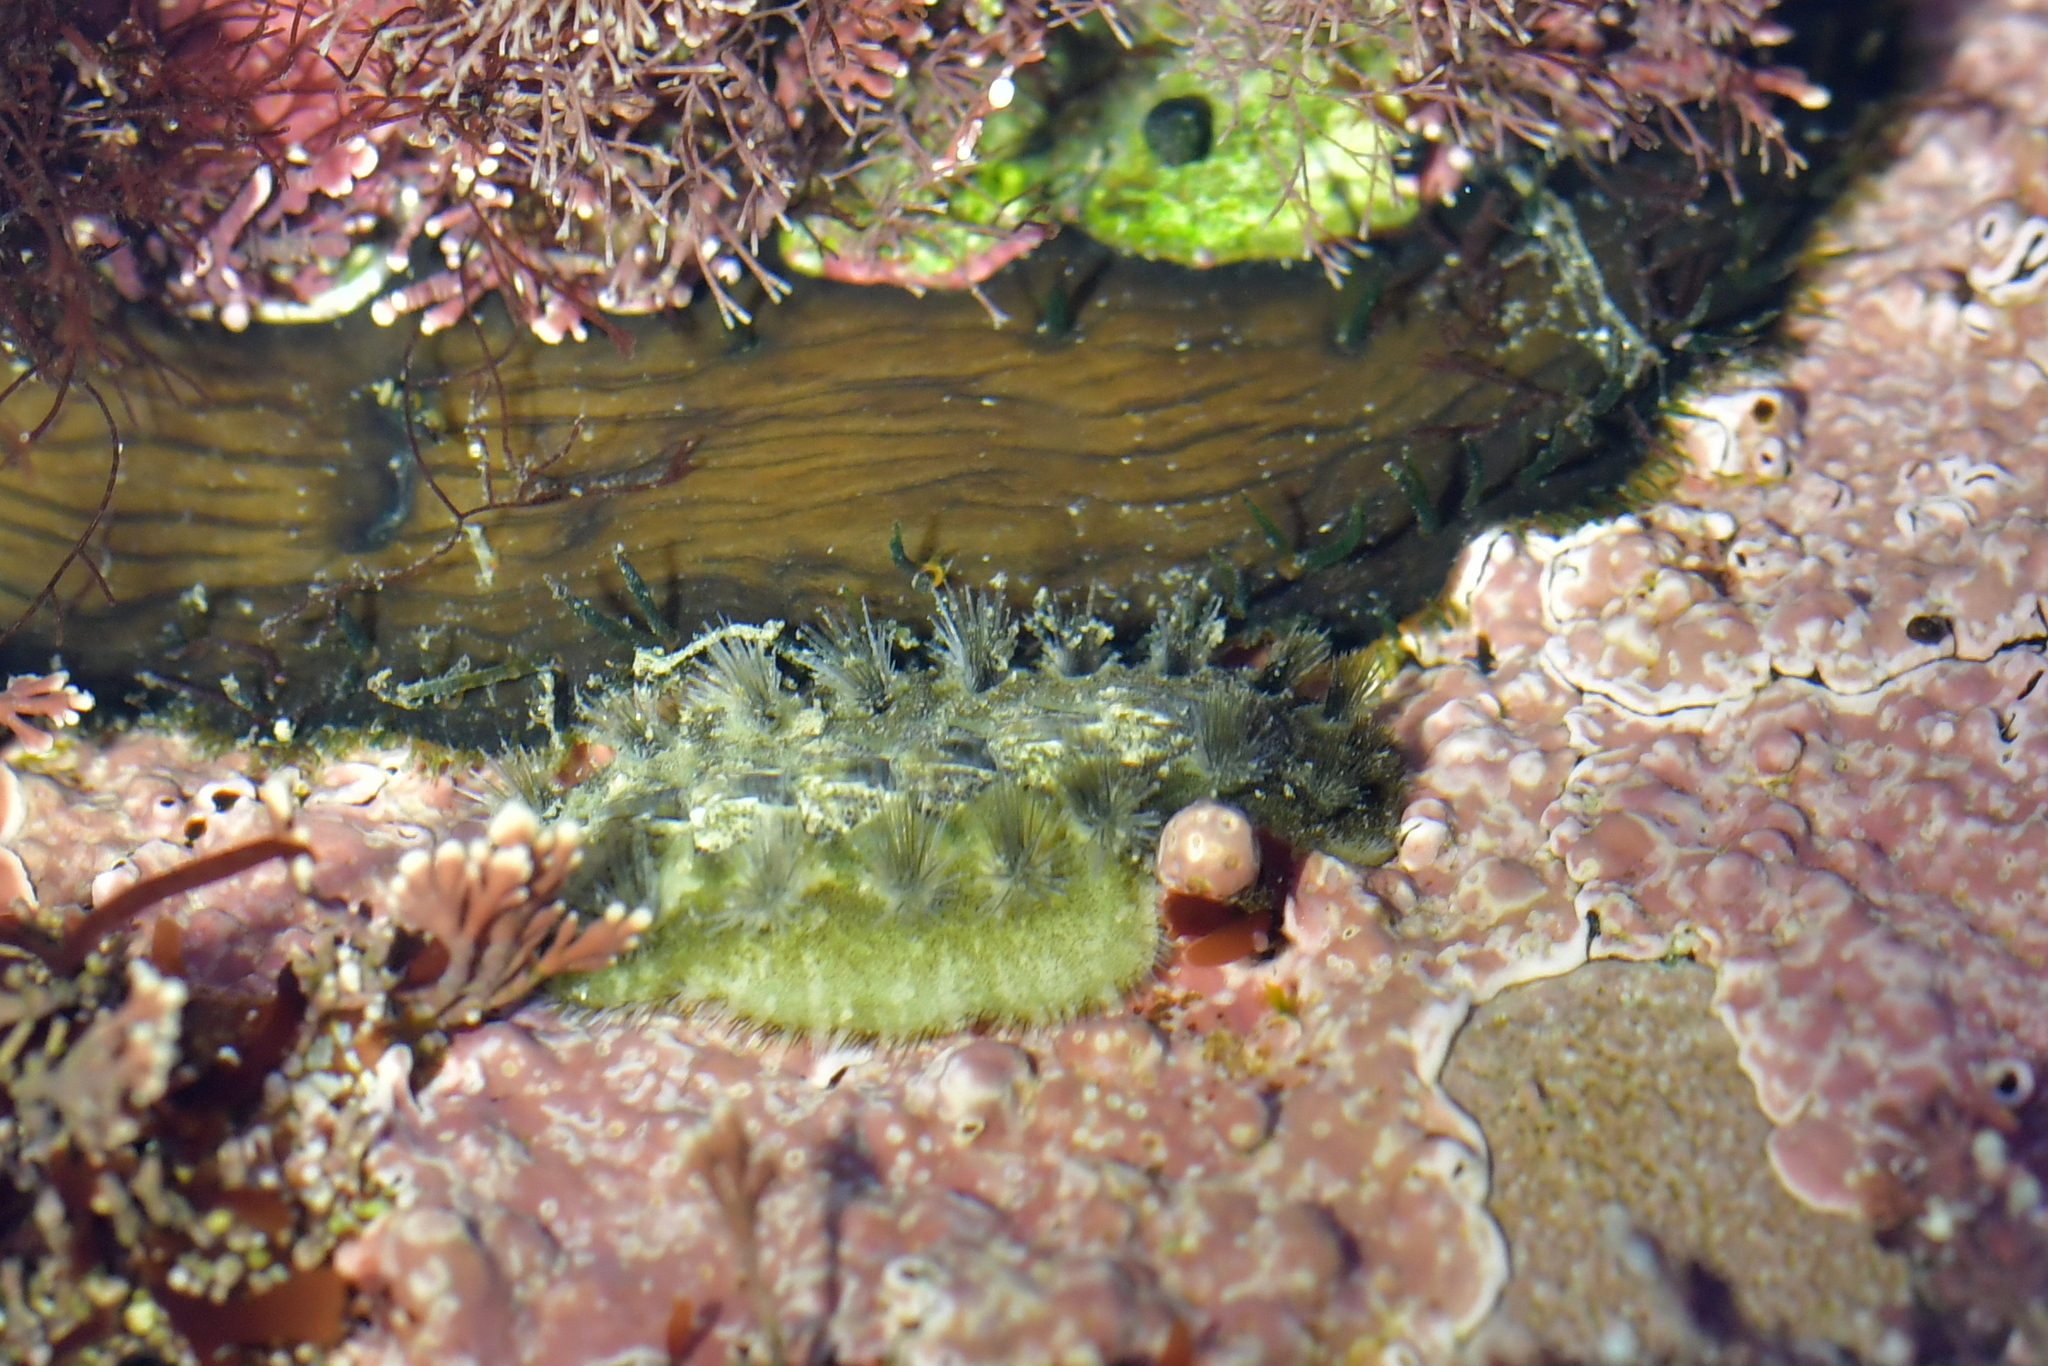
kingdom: Animalia
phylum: Mollusca
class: Polyplacophora
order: Chitonida
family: Acanthochitonidae
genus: Acanthochitona
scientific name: Acanthochitona zelandica
